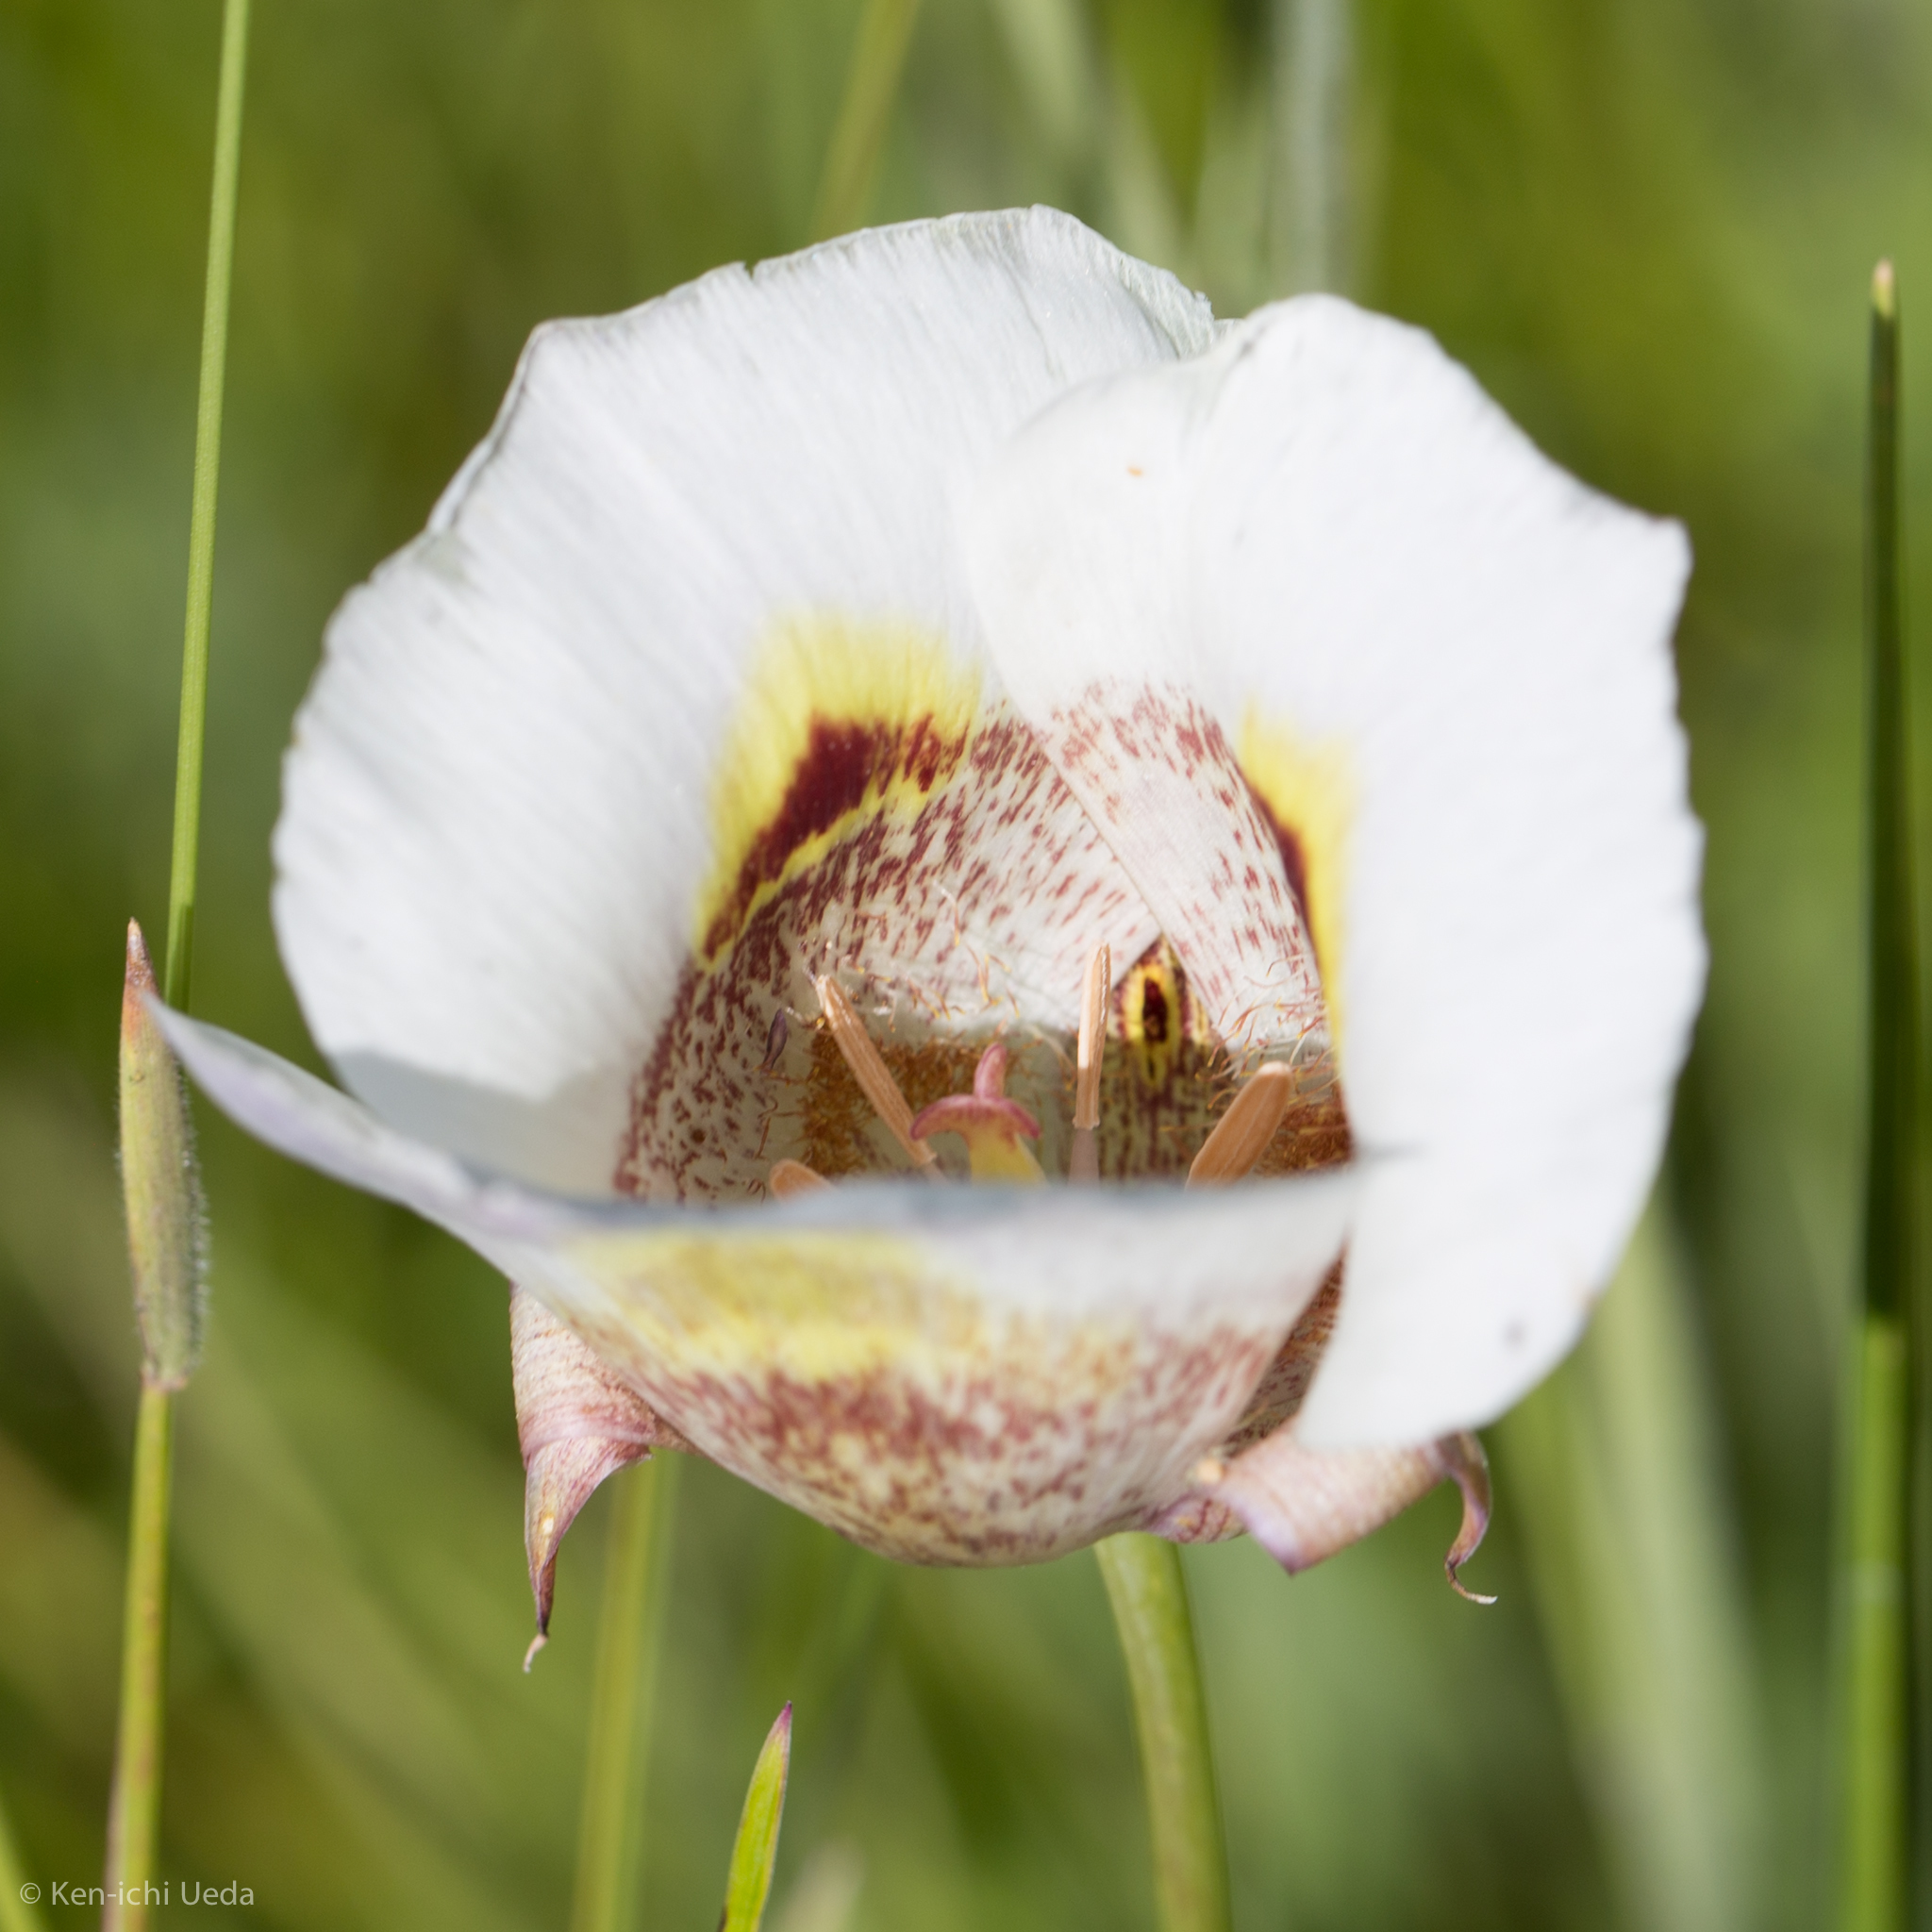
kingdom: Plantae
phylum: Tracheophyta
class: Liliopsida
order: Liliales
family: Liliaceae
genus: Calochortus
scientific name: Calochortus superbus
